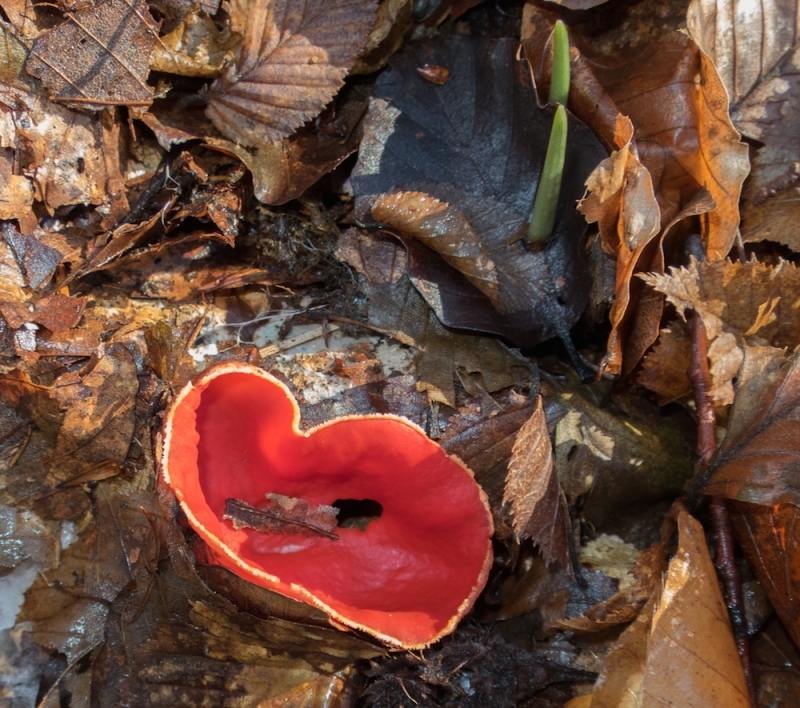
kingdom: Fungi
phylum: Ascomycota
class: Pezizomycetes
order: Pezizales
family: Sarcoscyphaceae
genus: Sarcoscypha
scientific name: Sarcoscypha coccinea
